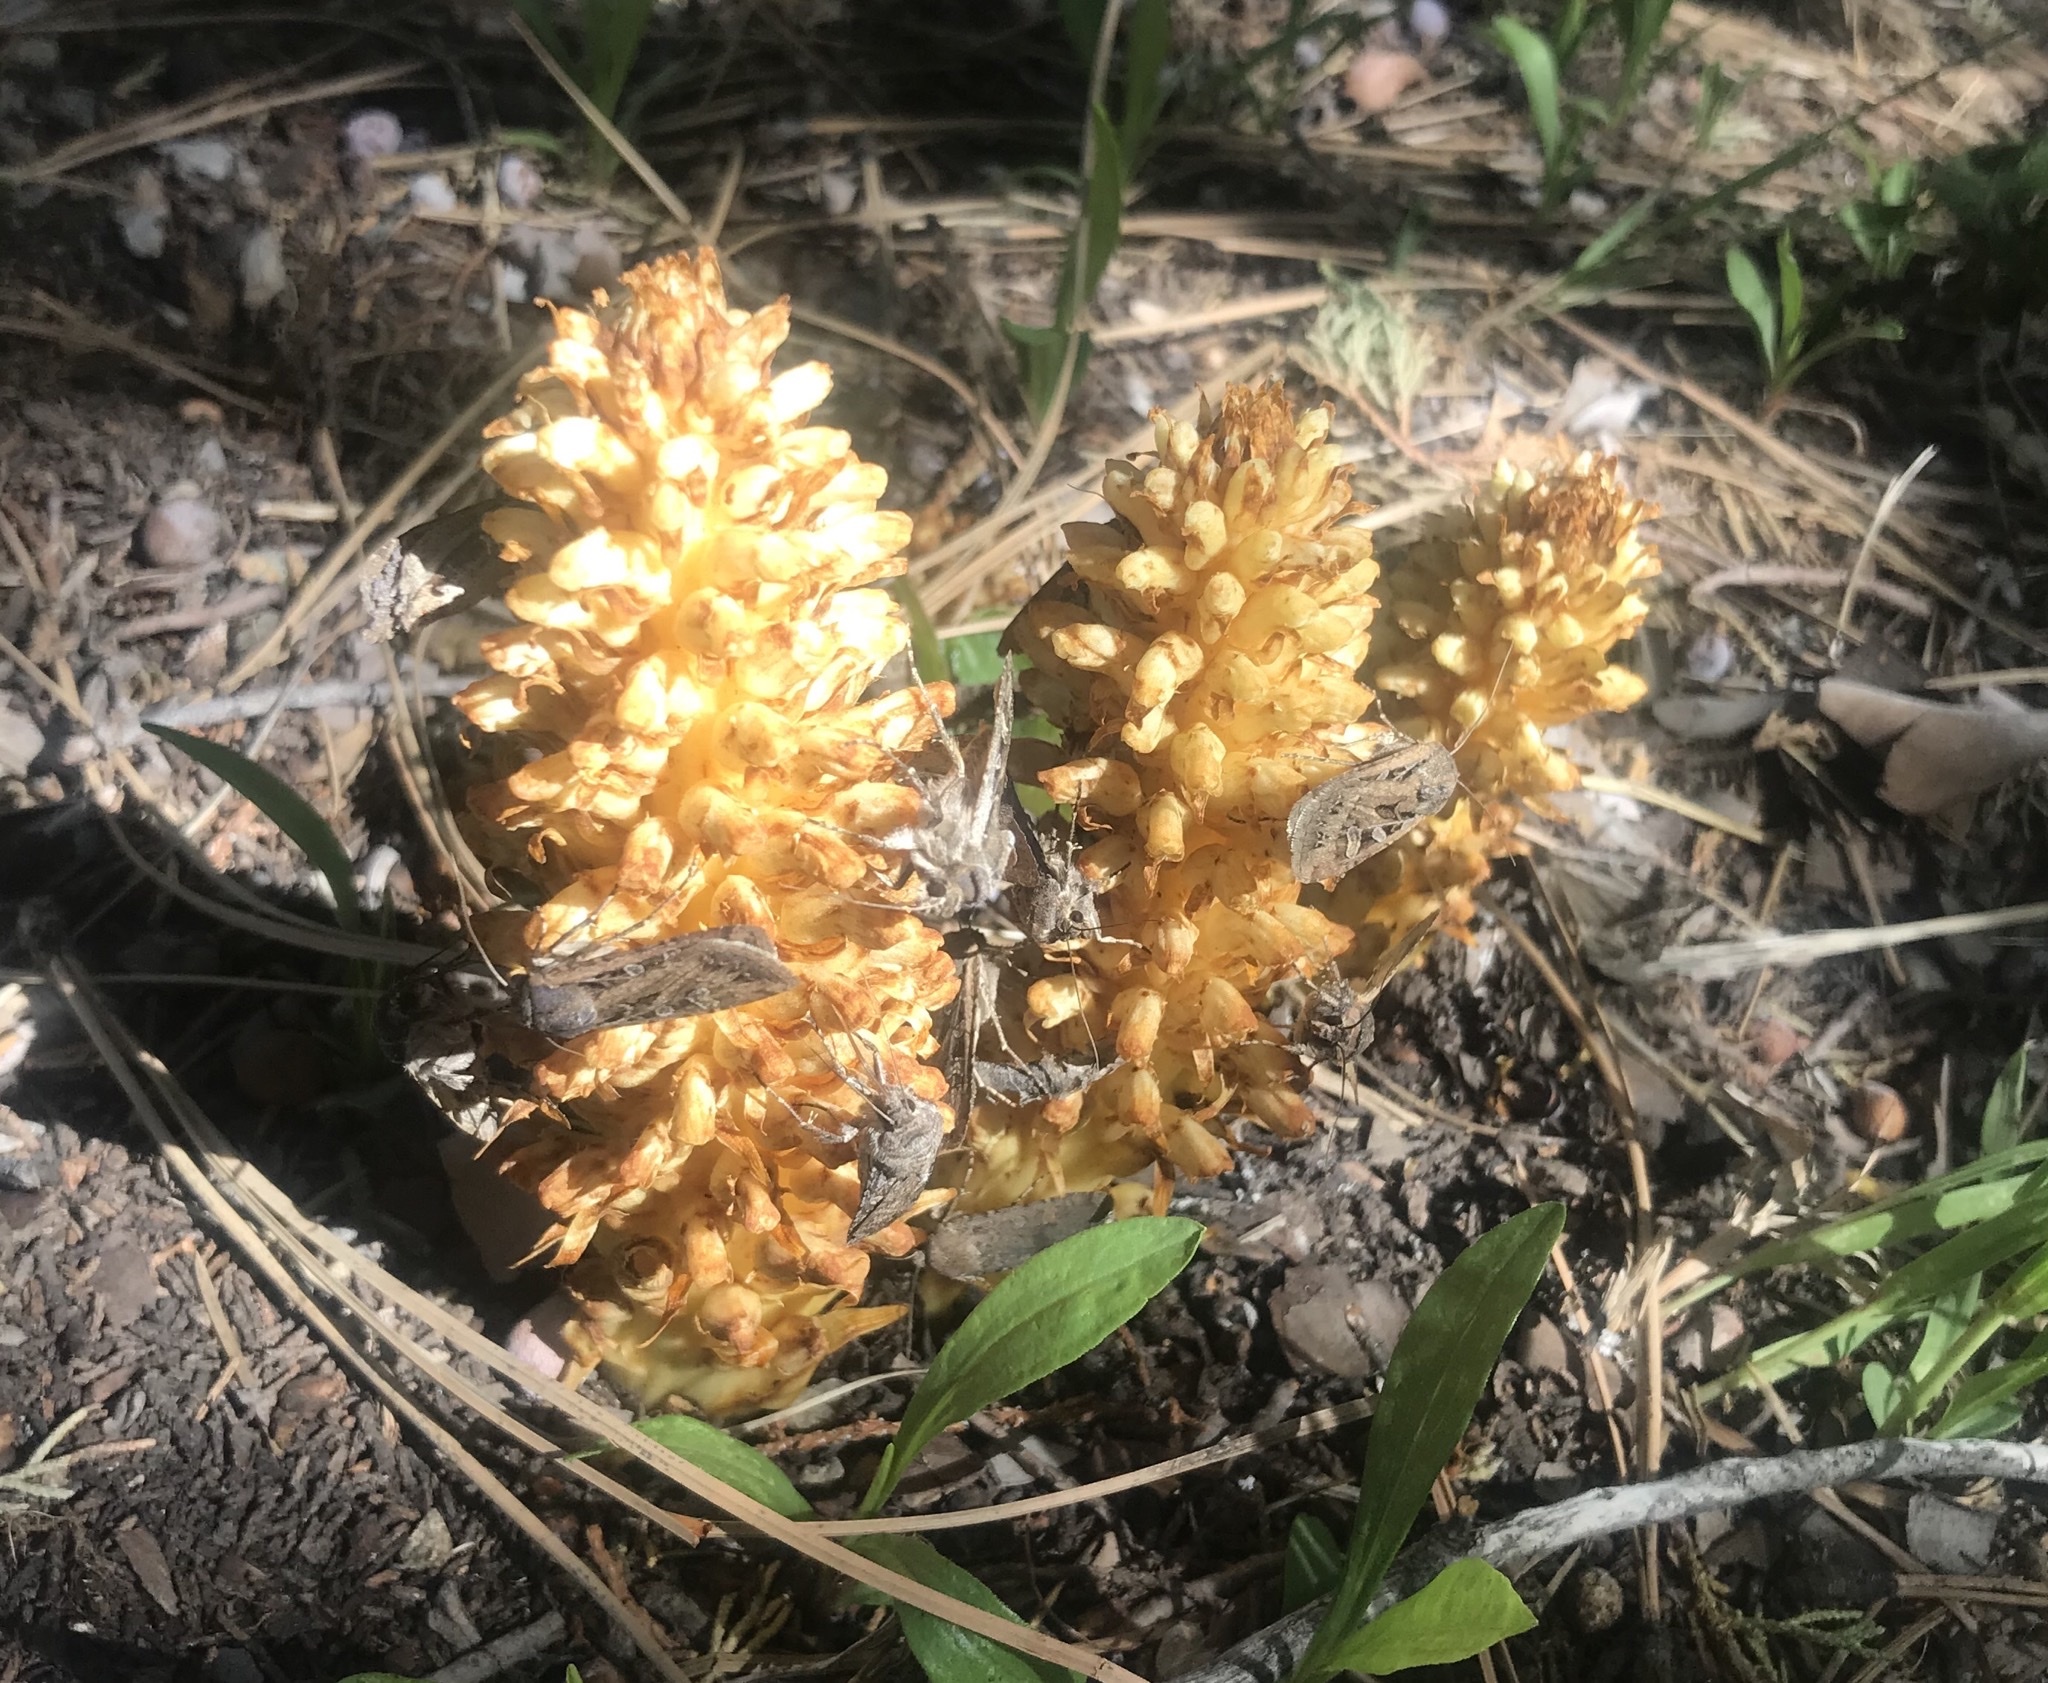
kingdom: Plantae
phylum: Tracheophyta
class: Magnoliopsida
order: Lamiales
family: Orobanchaceae
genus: Conopholis
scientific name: Conopholis alpina
